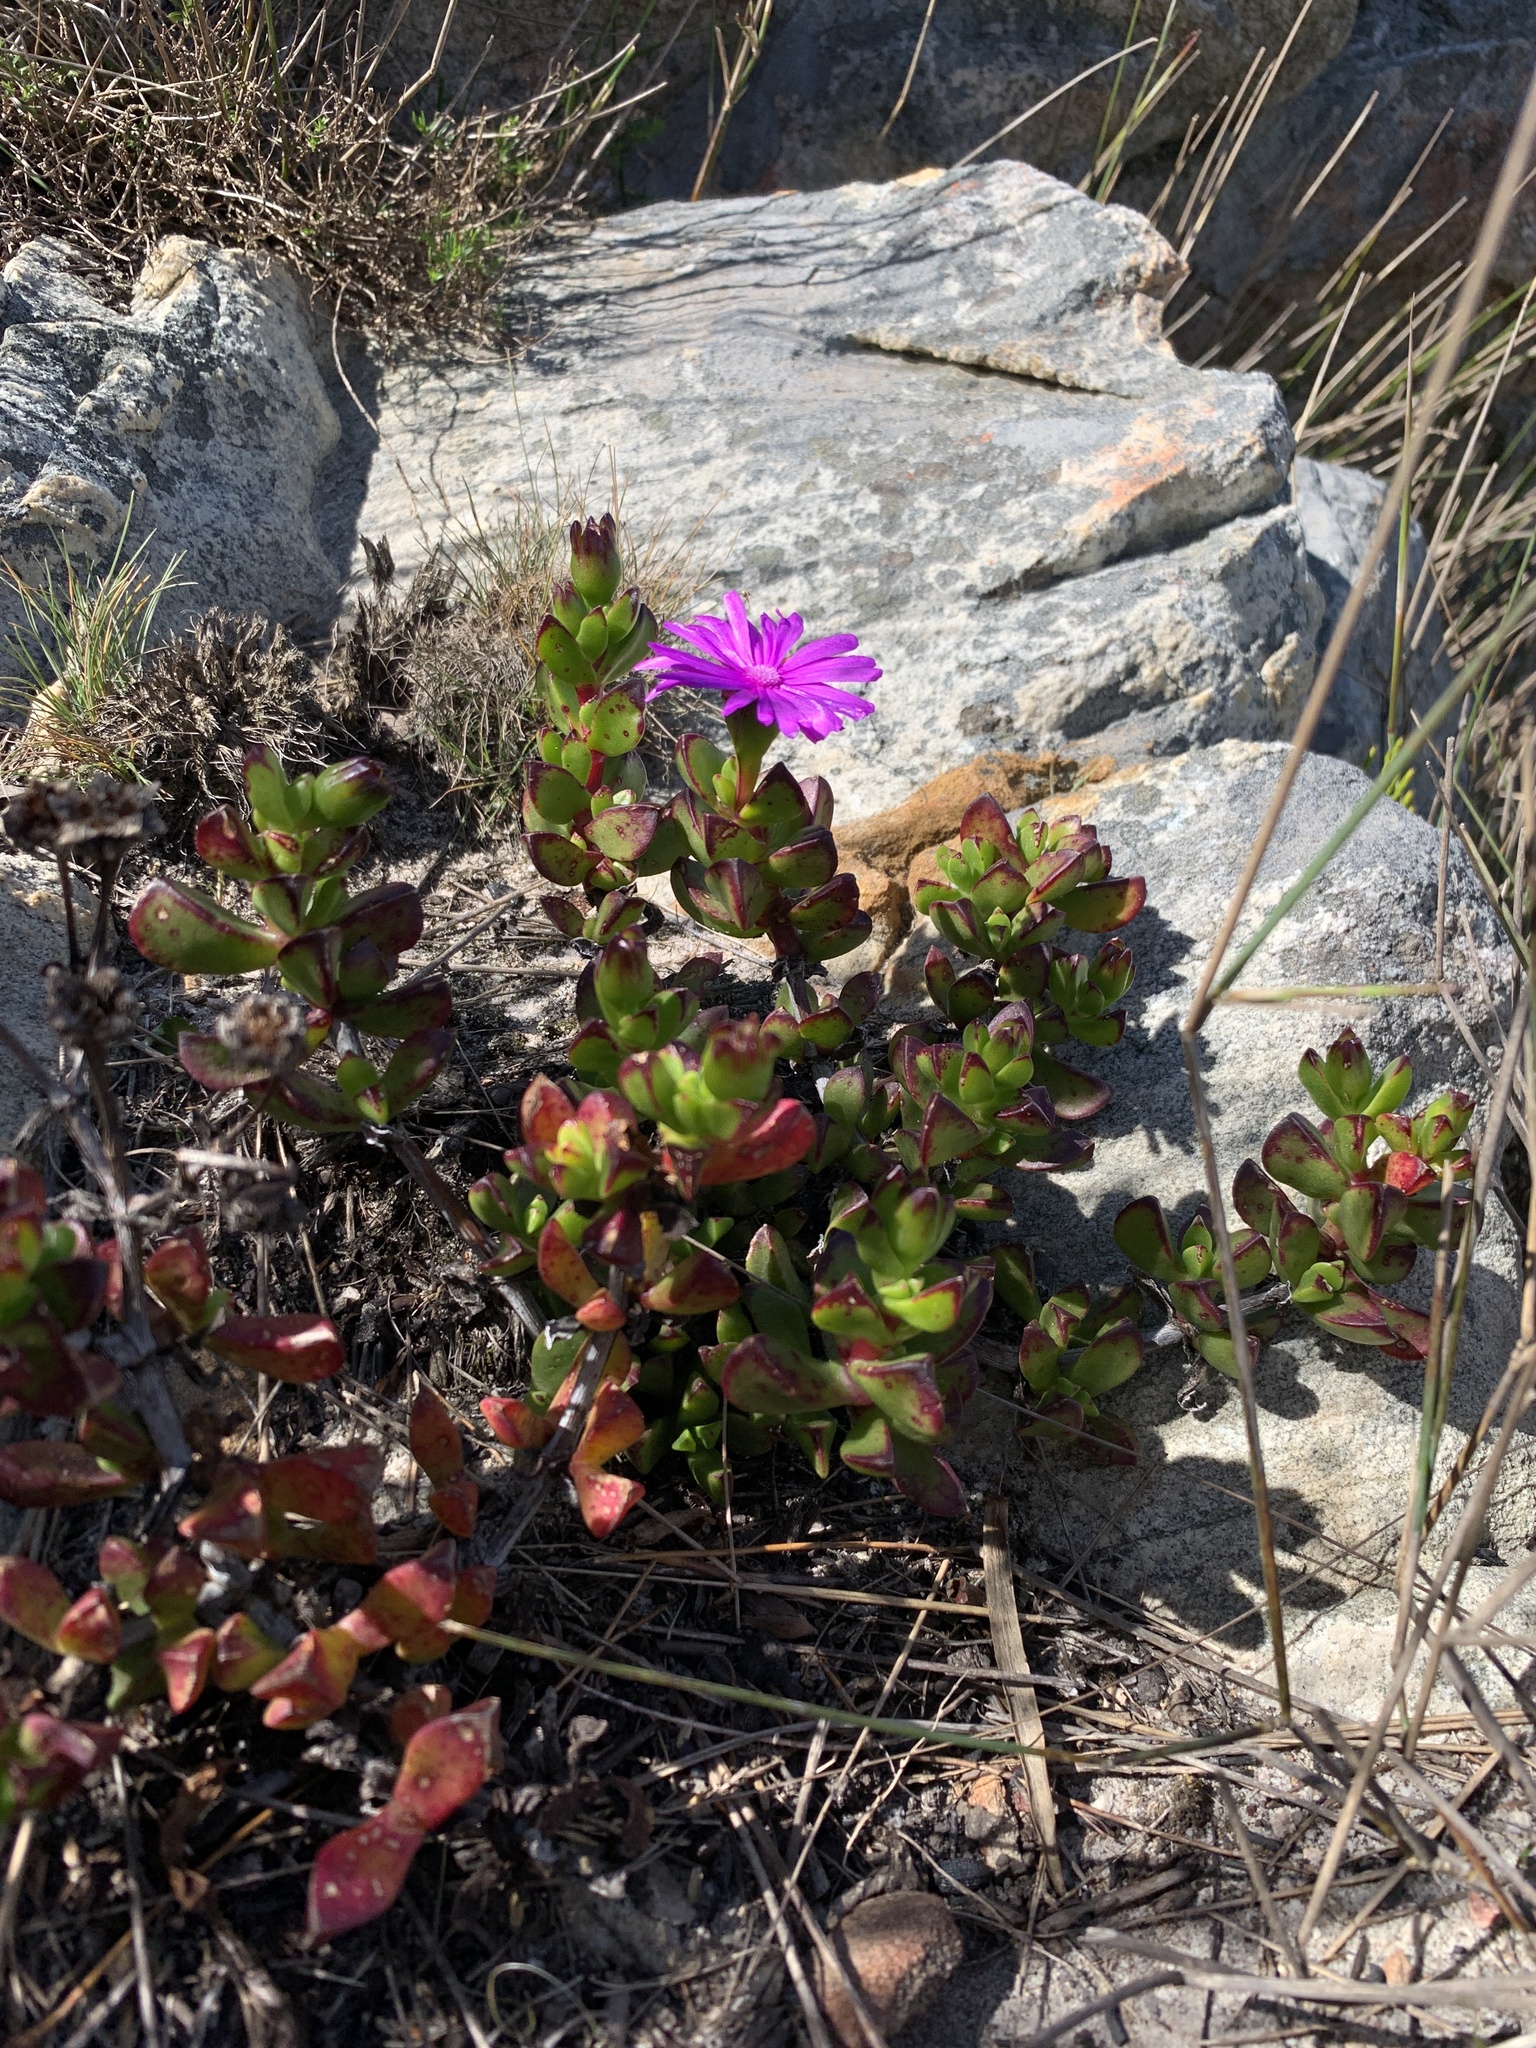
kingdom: Plantae
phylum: Tracheophyta
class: Magnoliopsida
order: Caryophyllales
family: Aizoaceae
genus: Erepsia
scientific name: Erepsia inclaudens
